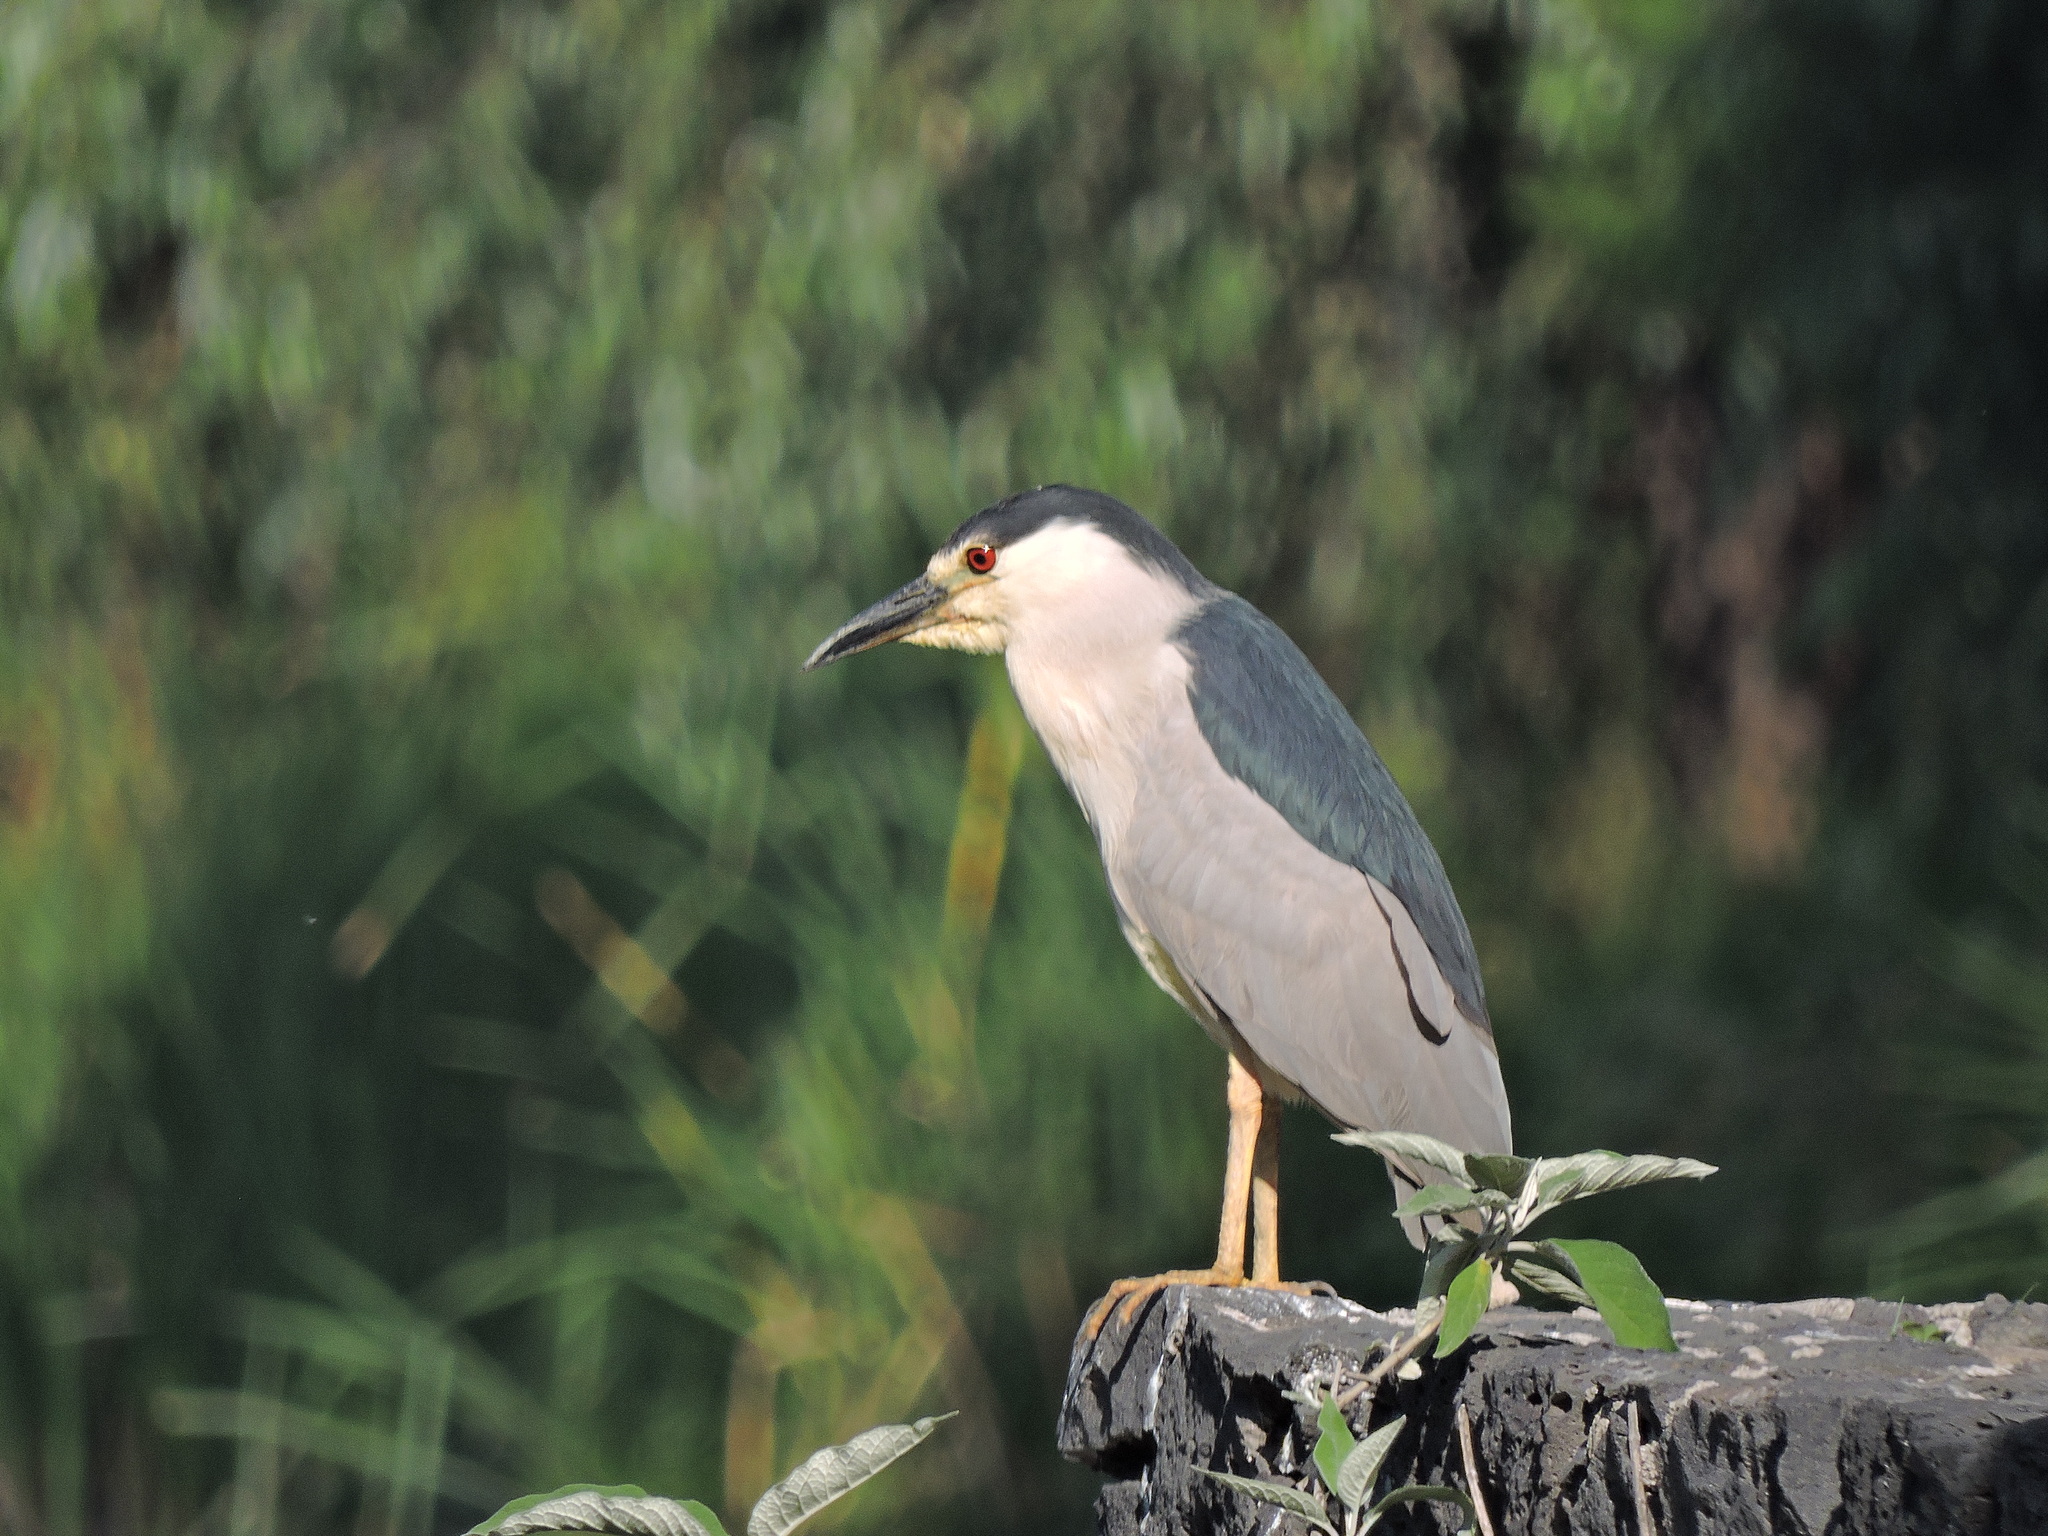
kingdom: Animalia
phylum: Chordata
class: Aves
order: Pelecaniformes
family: Ardeidae
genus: Nycticorax
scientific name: Nycticorax nycticorax
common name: Black-crowned night heron
